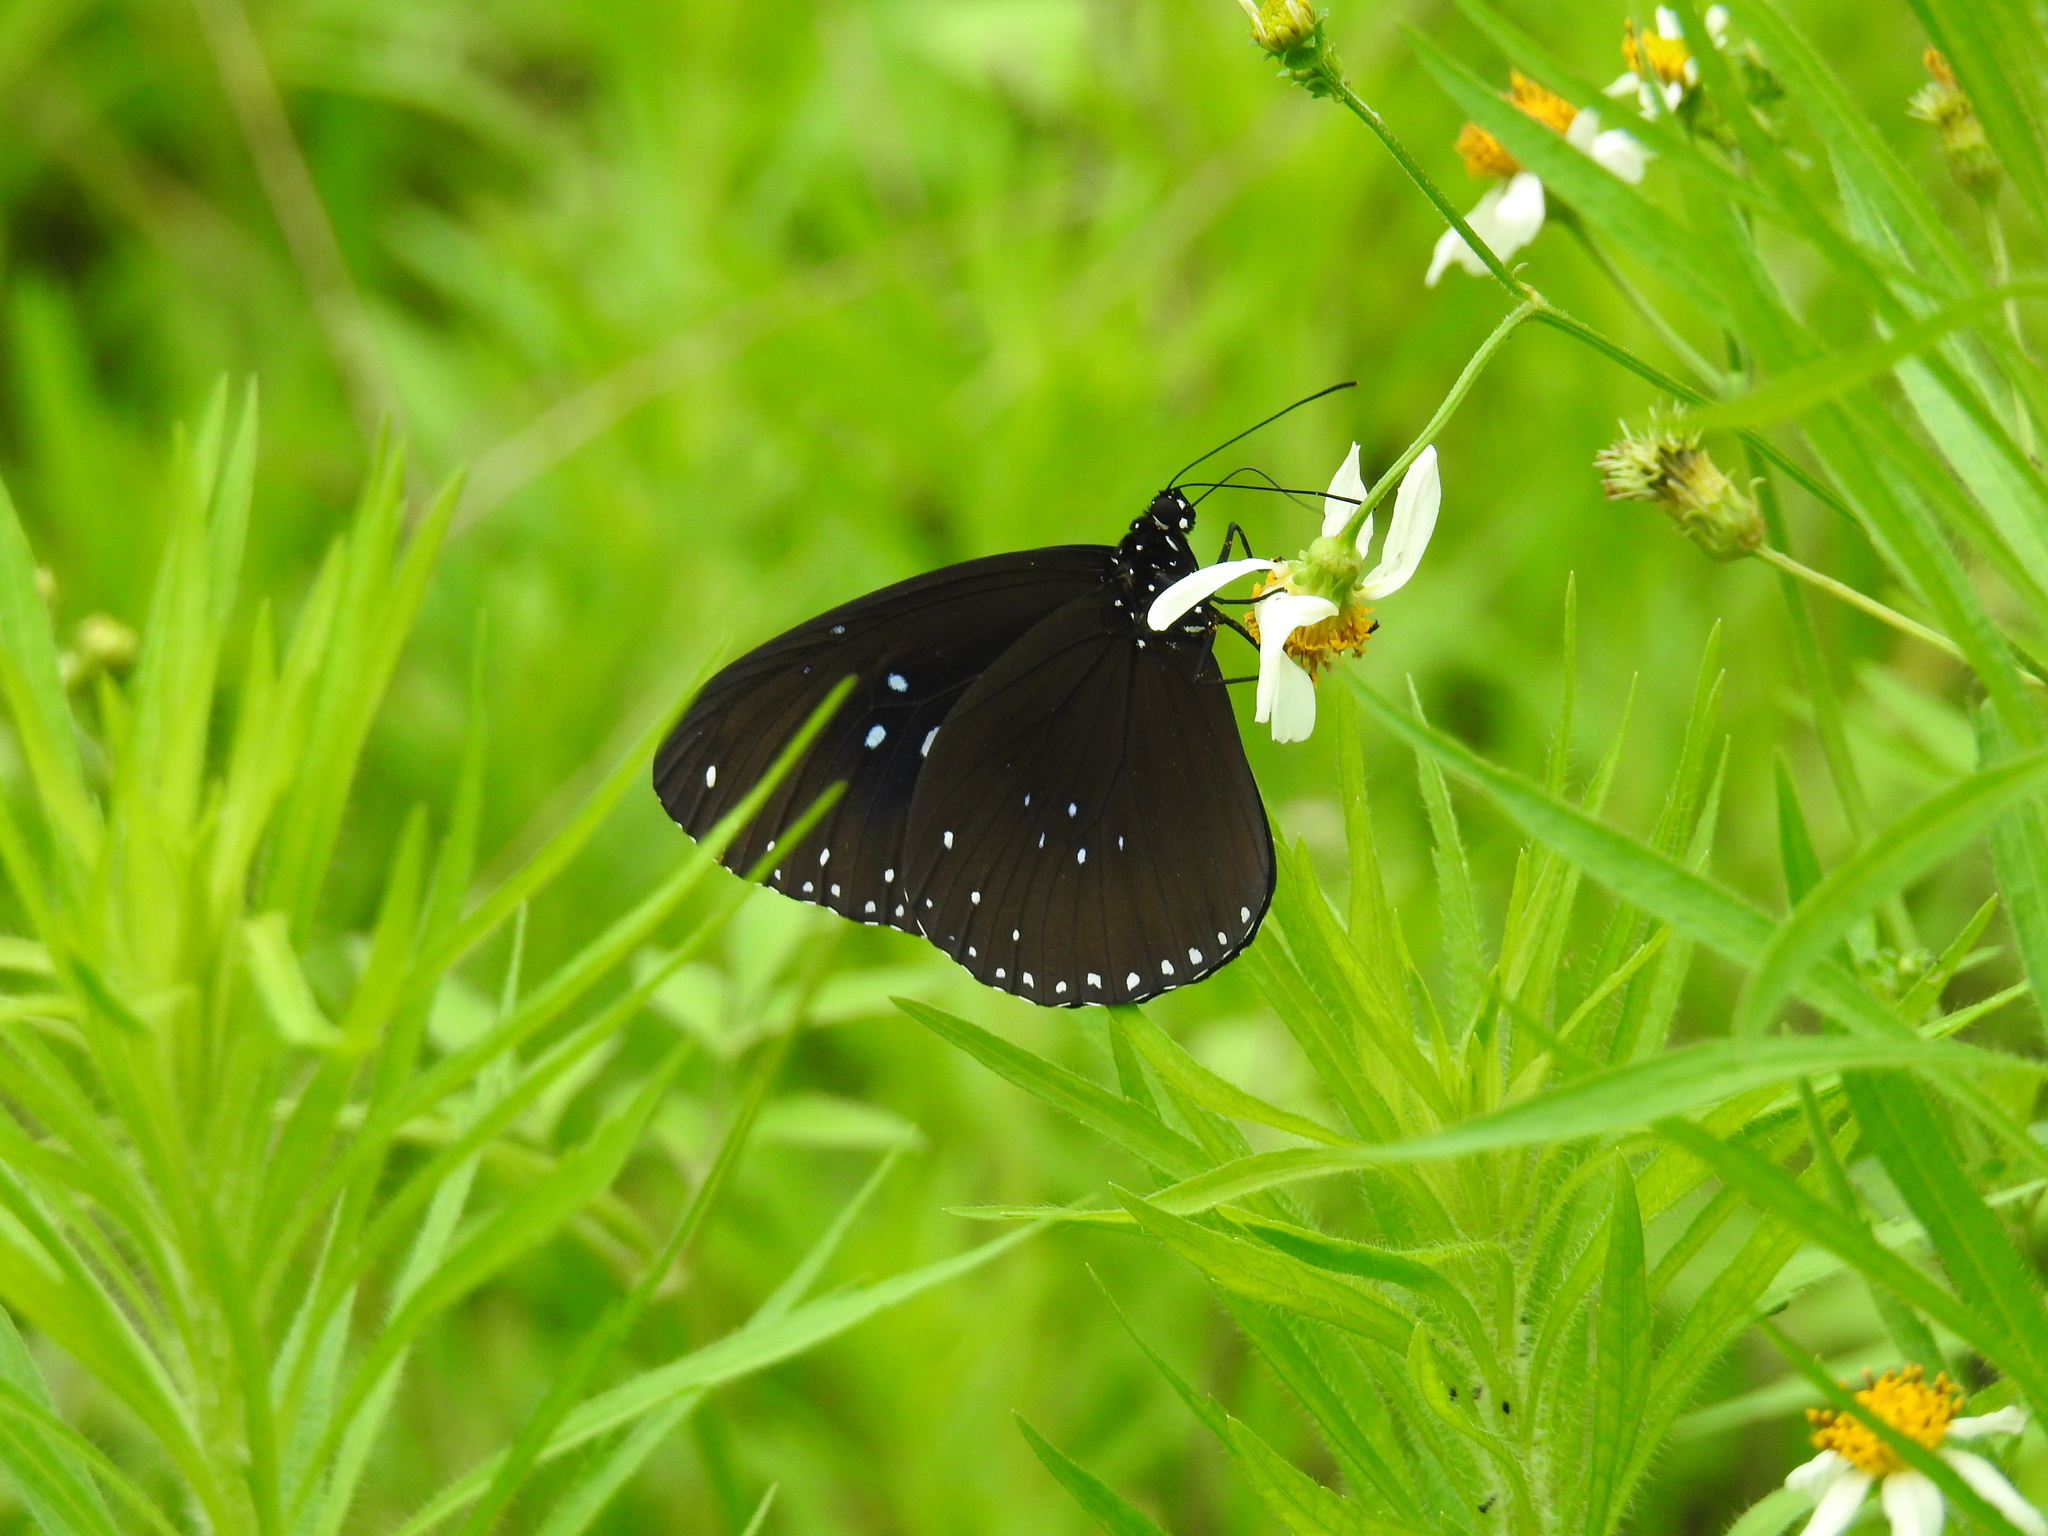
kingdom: Animalia
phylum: Arthropoda
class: Insecta
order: Lepidoptera
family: Nymphalidae
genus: Euploea
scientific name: Euploea sylvester
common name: Double-branded crow butterfly
